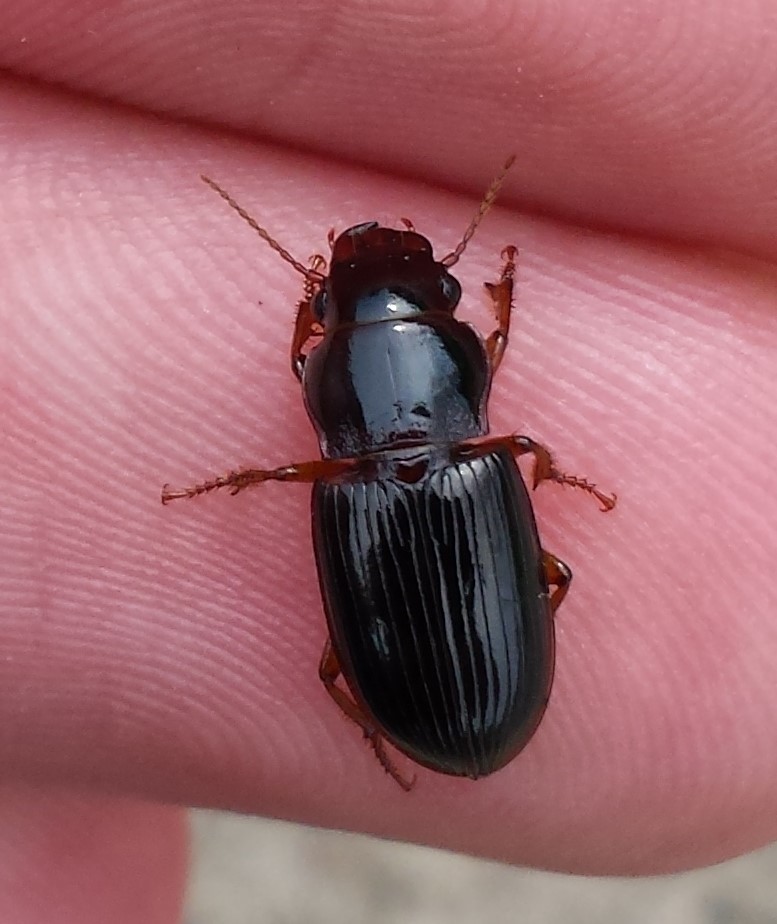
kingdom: Animalia
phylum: Arthropoda
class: Insecta
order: Coleoptera
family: Carabidae
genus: Cratacanthus
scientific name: Cratacanthus dubius
